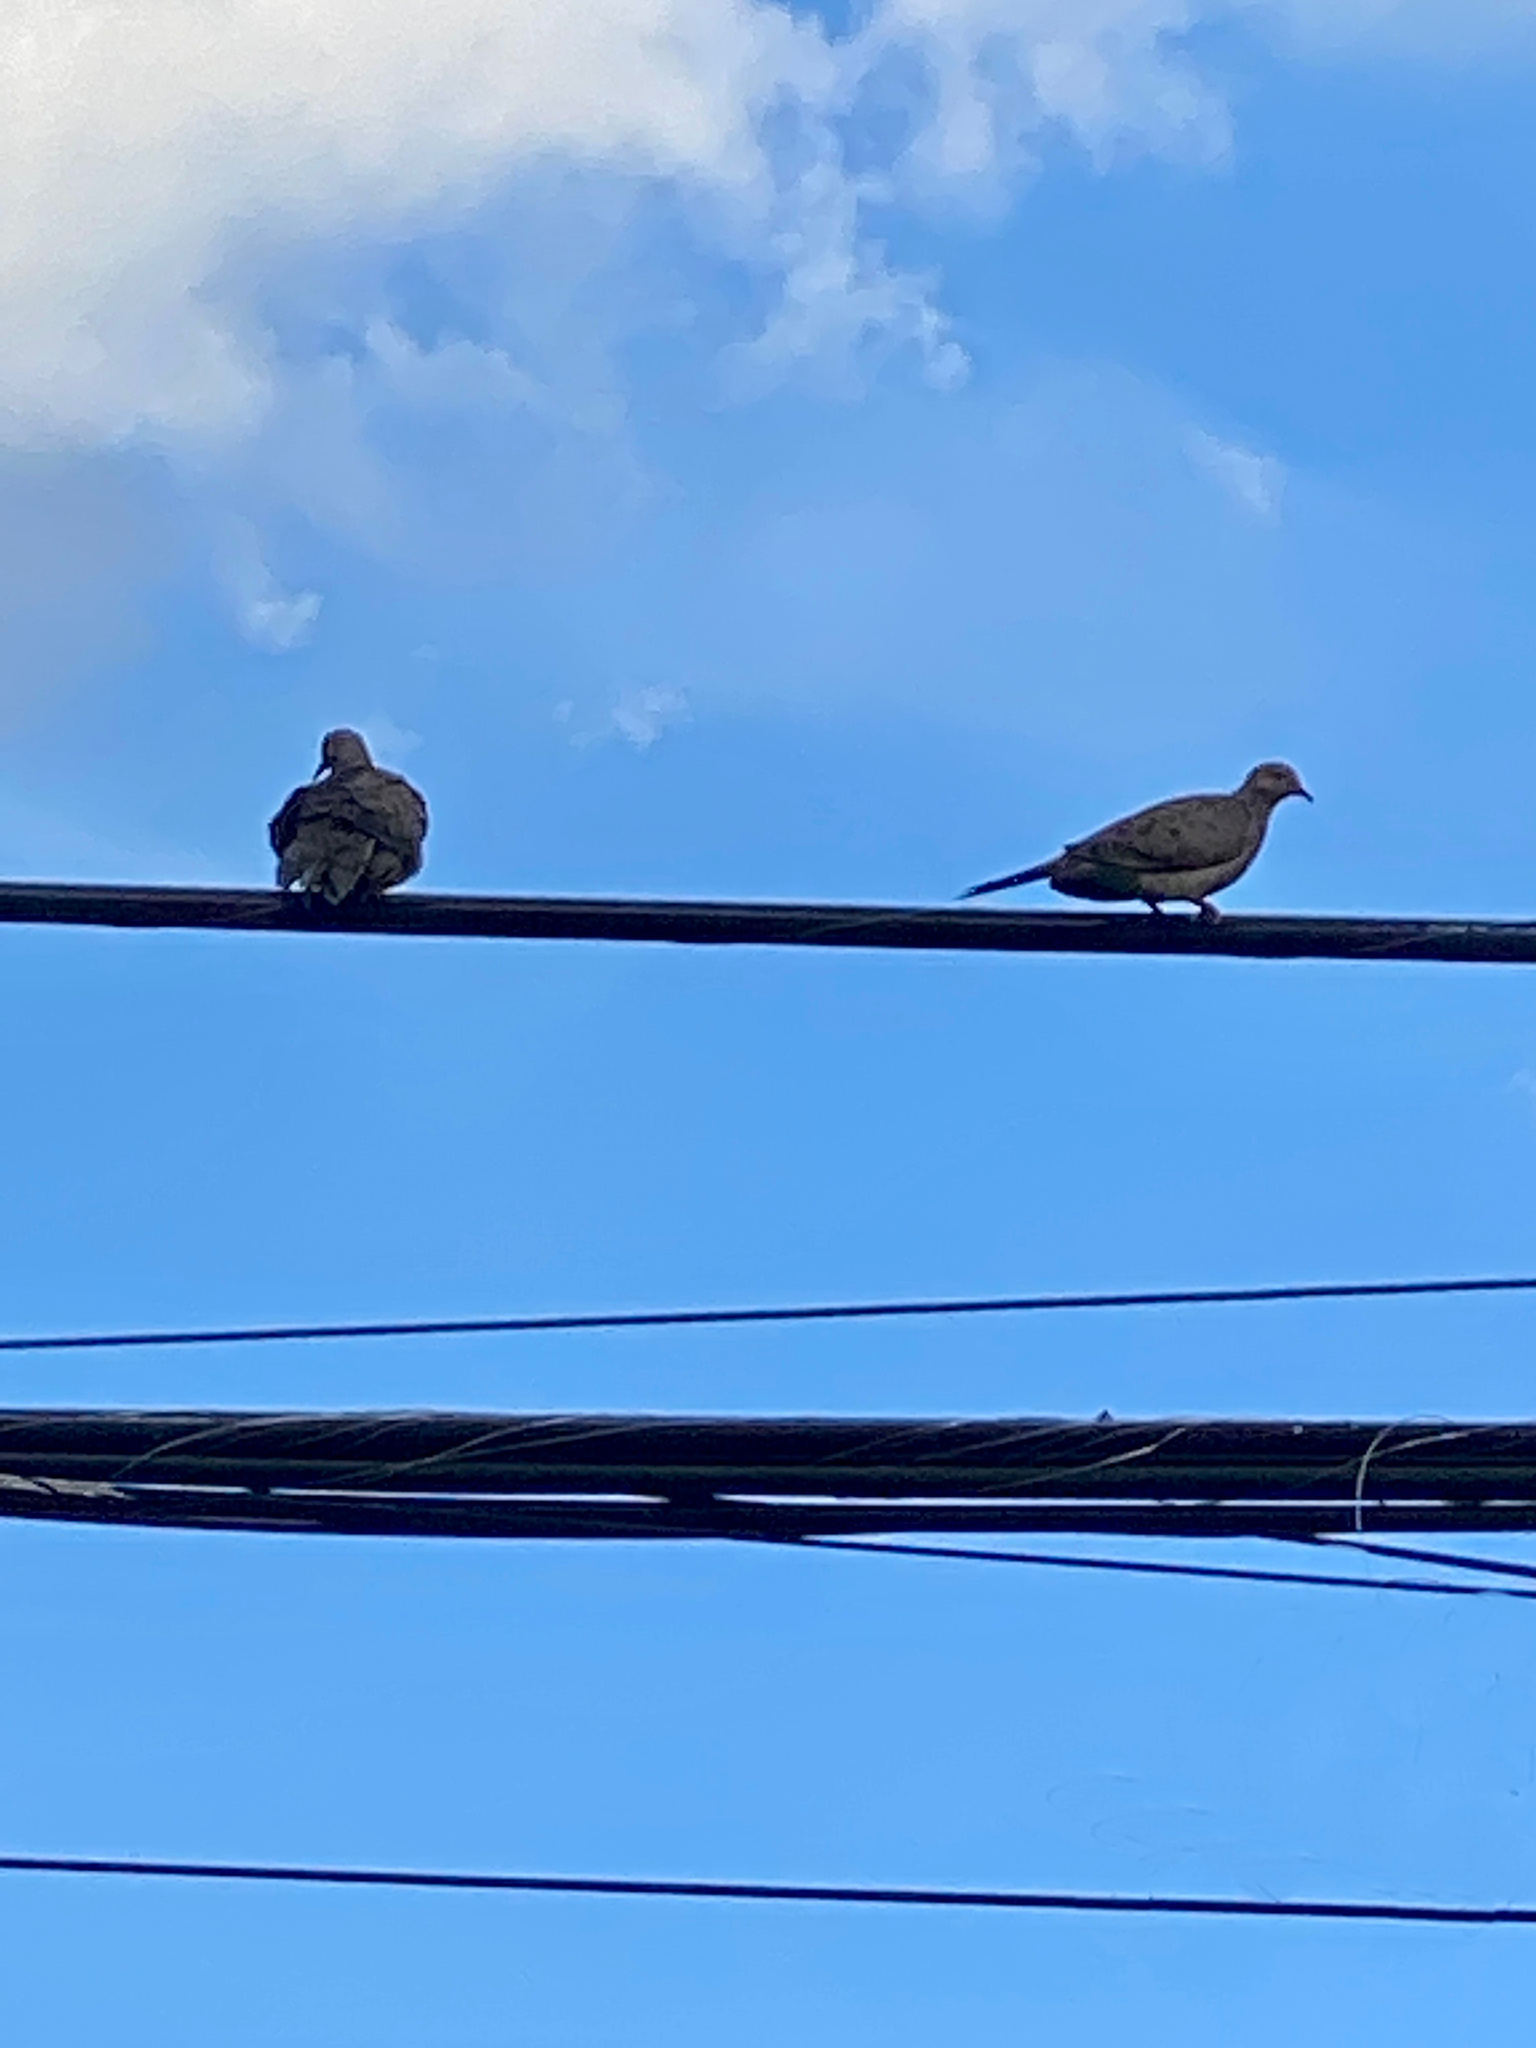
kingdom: Animalia
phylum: Chordata
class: Aves
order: Columbiformes
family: Columbidae
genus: Zenaida
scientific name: Zenaida macroura
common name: Mourning dove
